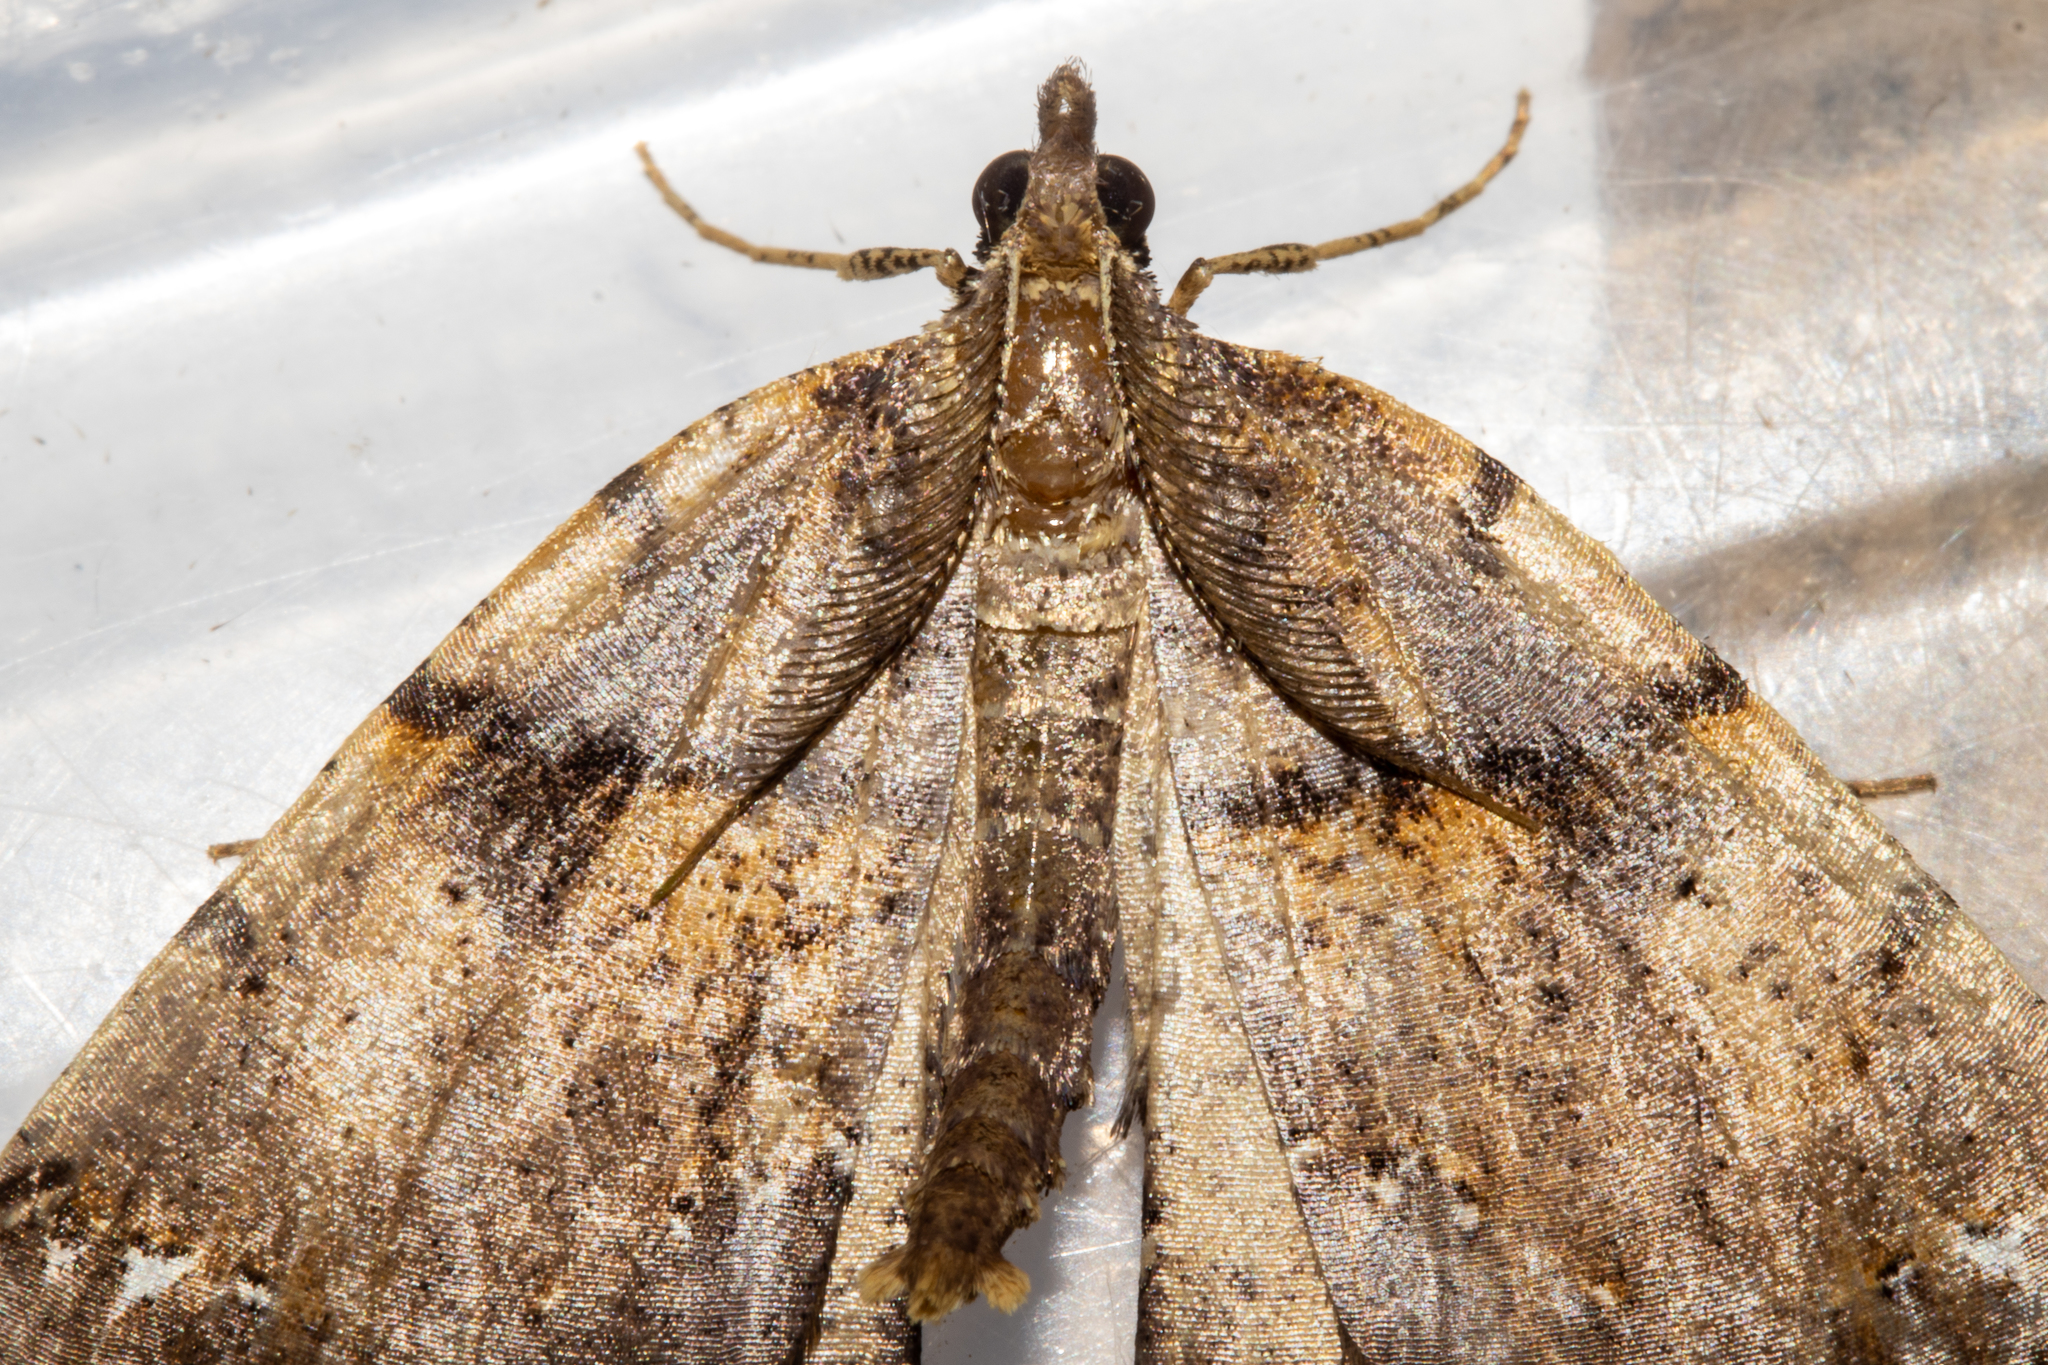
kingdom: Animalia
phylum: Arthropoda
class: Insecta
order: Lepidoptera
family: Geometridae
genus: Chalastra
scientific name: Chalastra pellurgata
